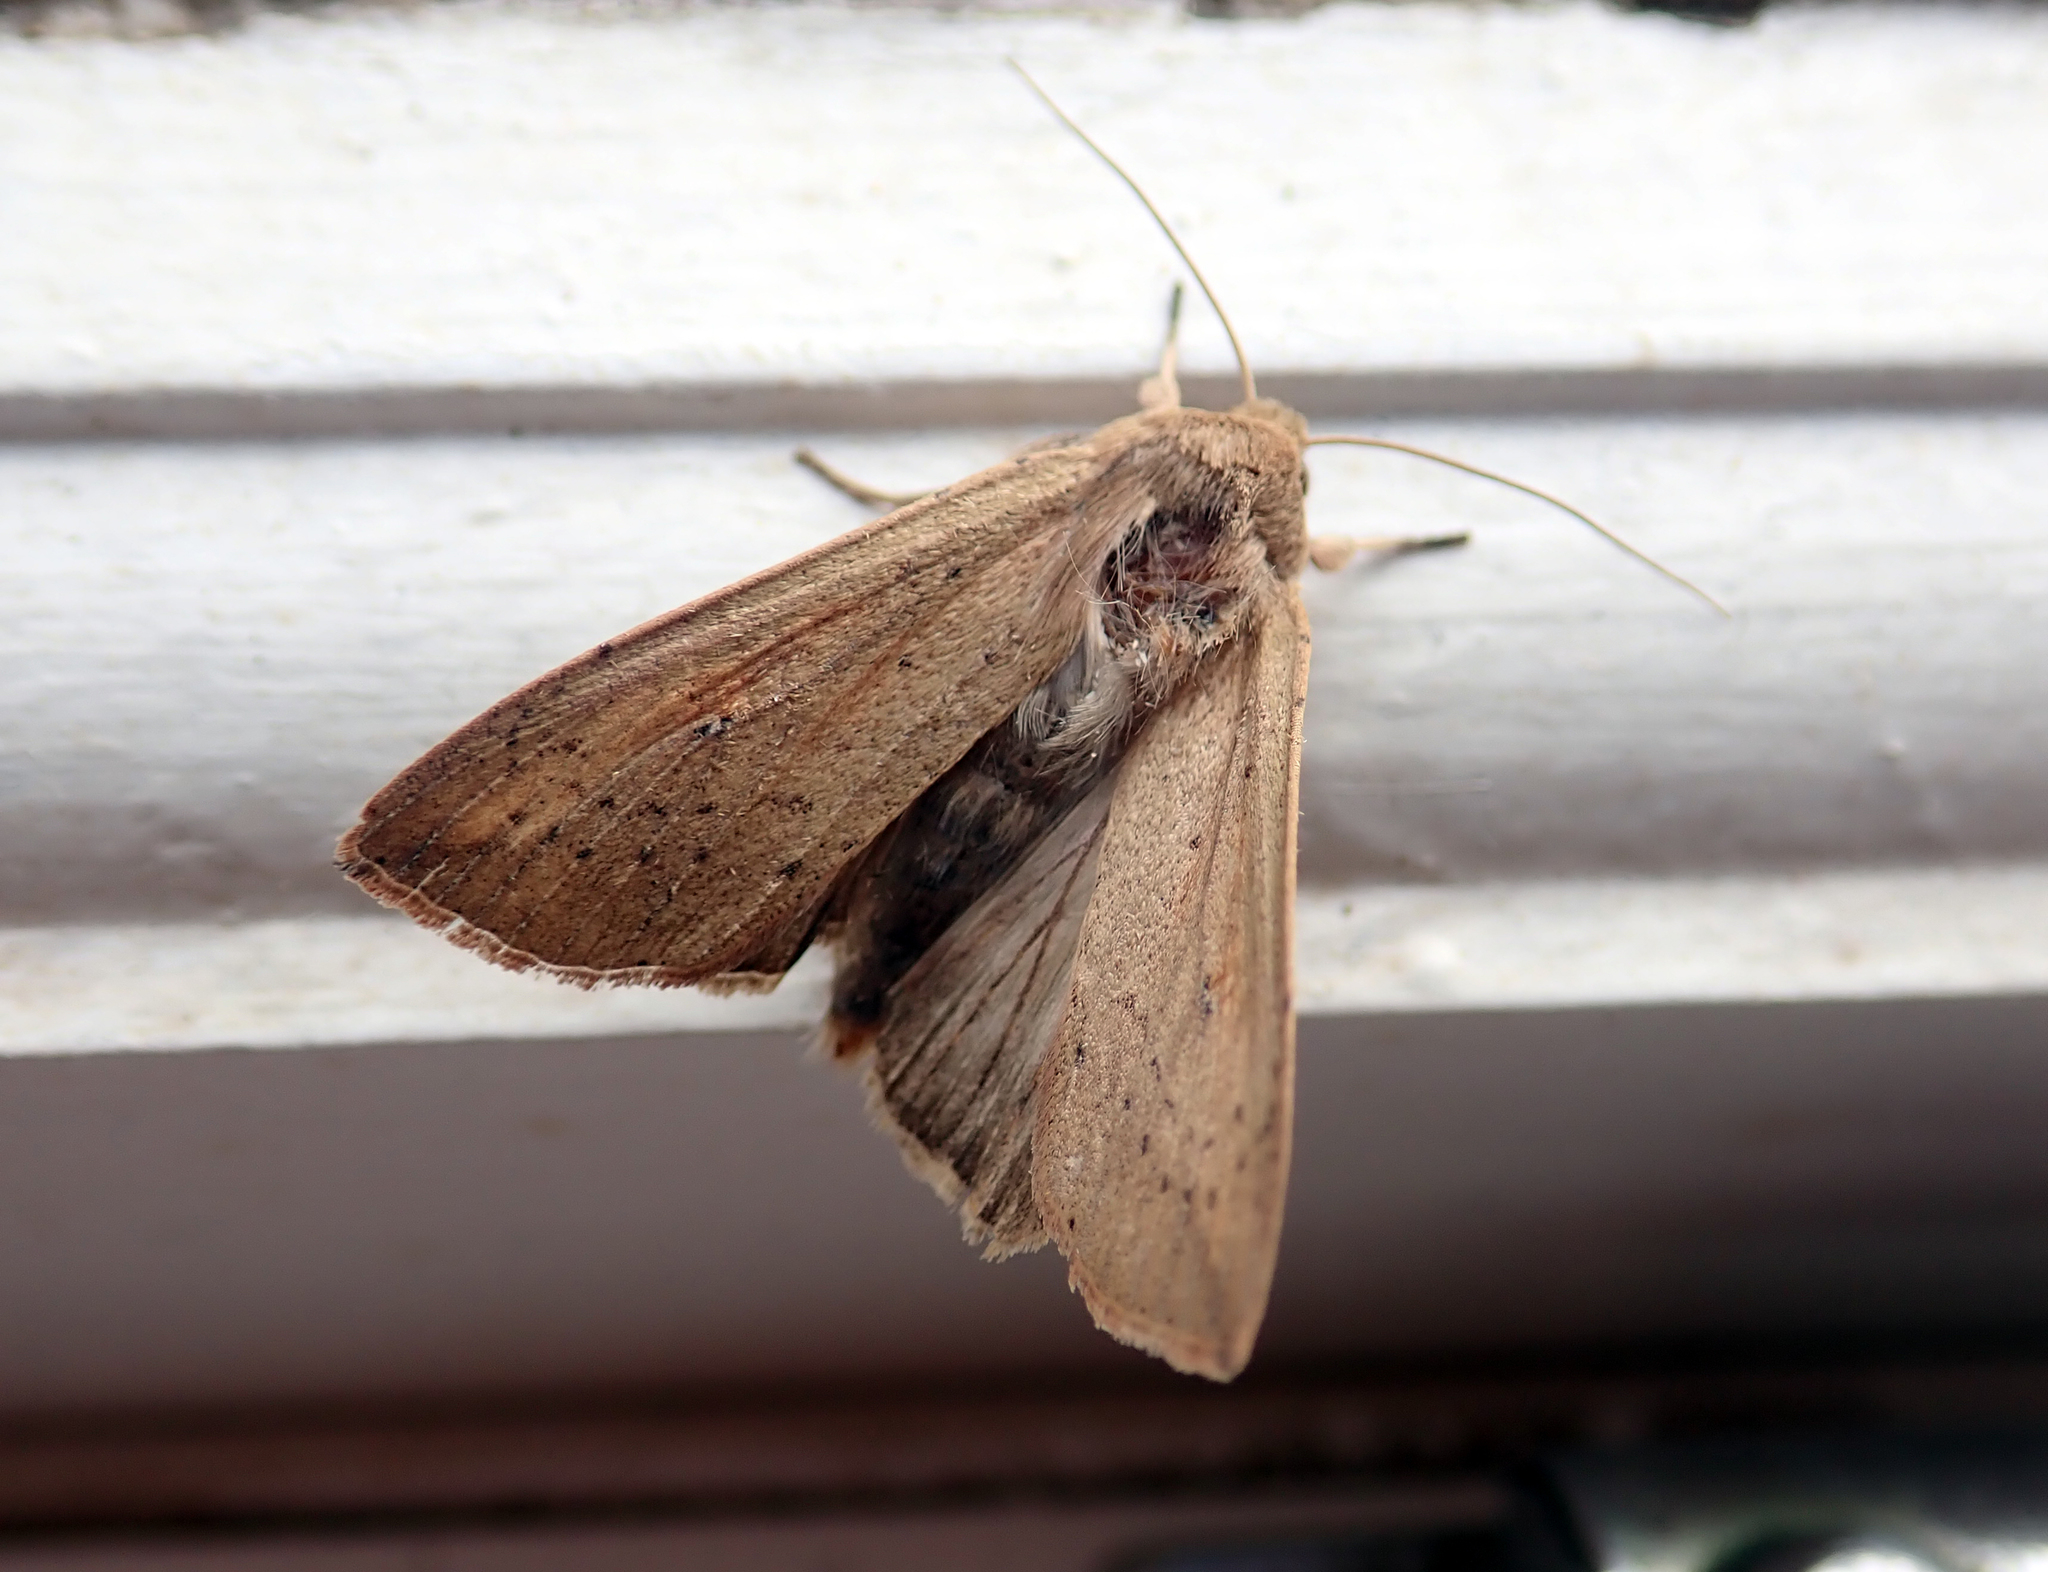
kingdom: Animalia
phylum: Arthropoda
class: Insecta
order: Lepidoptera
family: Noctuidae
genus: Mythimna
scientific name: Mythimna separata
